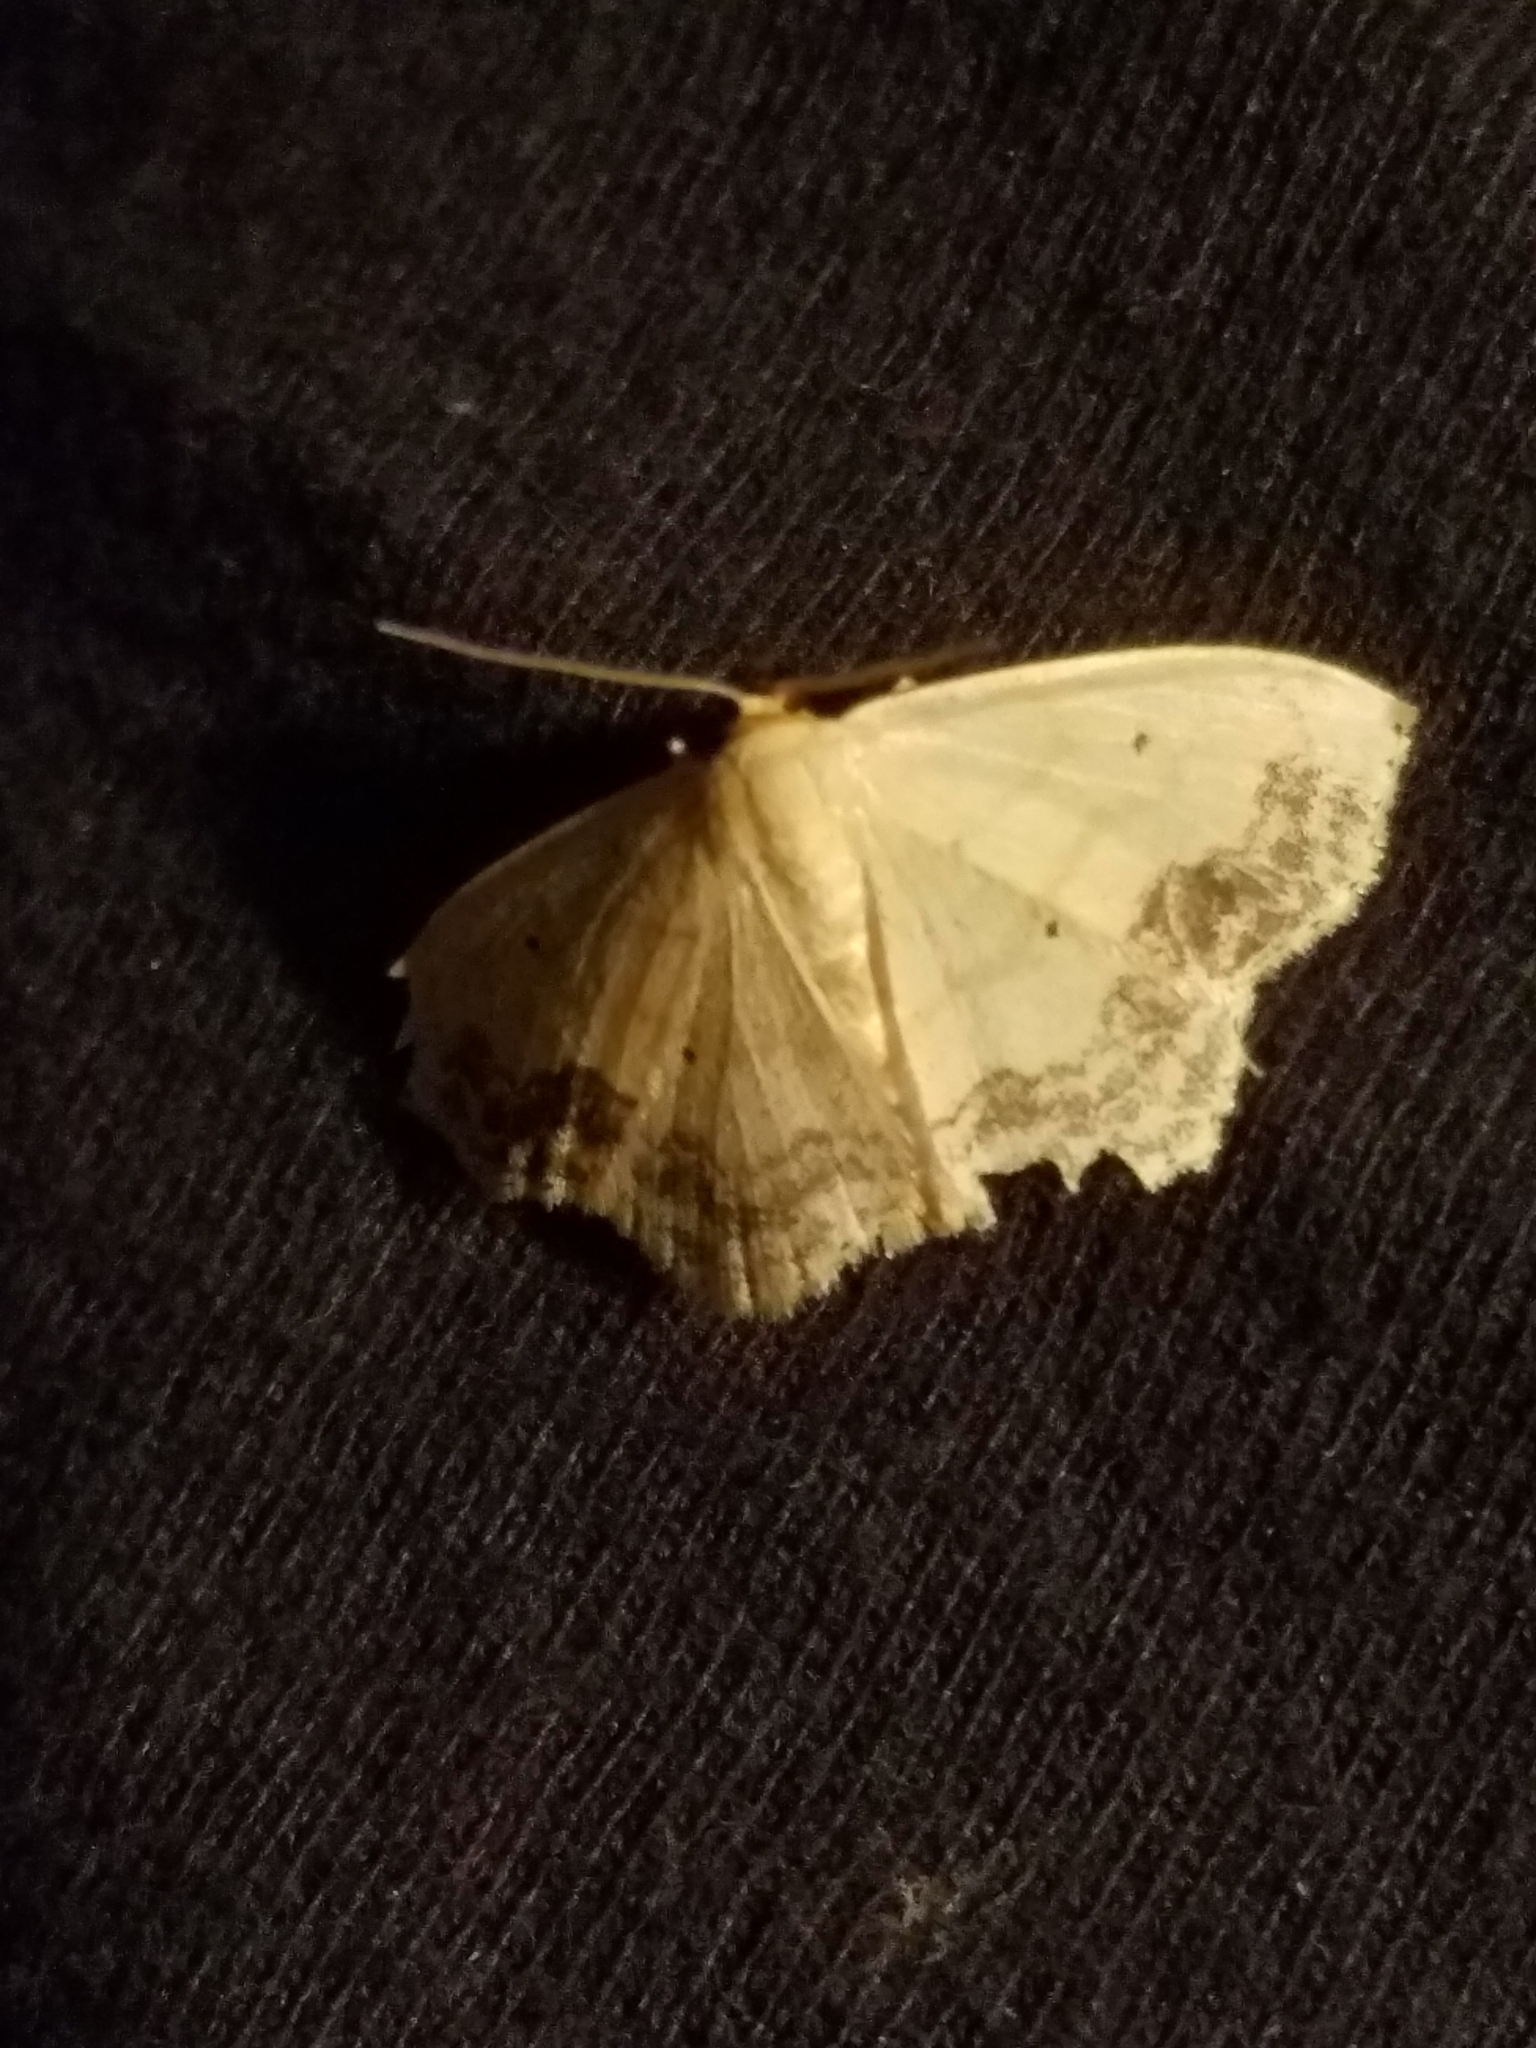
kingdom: Animalia
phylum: Arthropoda
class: Insecta
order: Lepidoptera
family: Geometridae
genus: Scopula
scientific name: Scopula limboundata
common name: Large lace border
